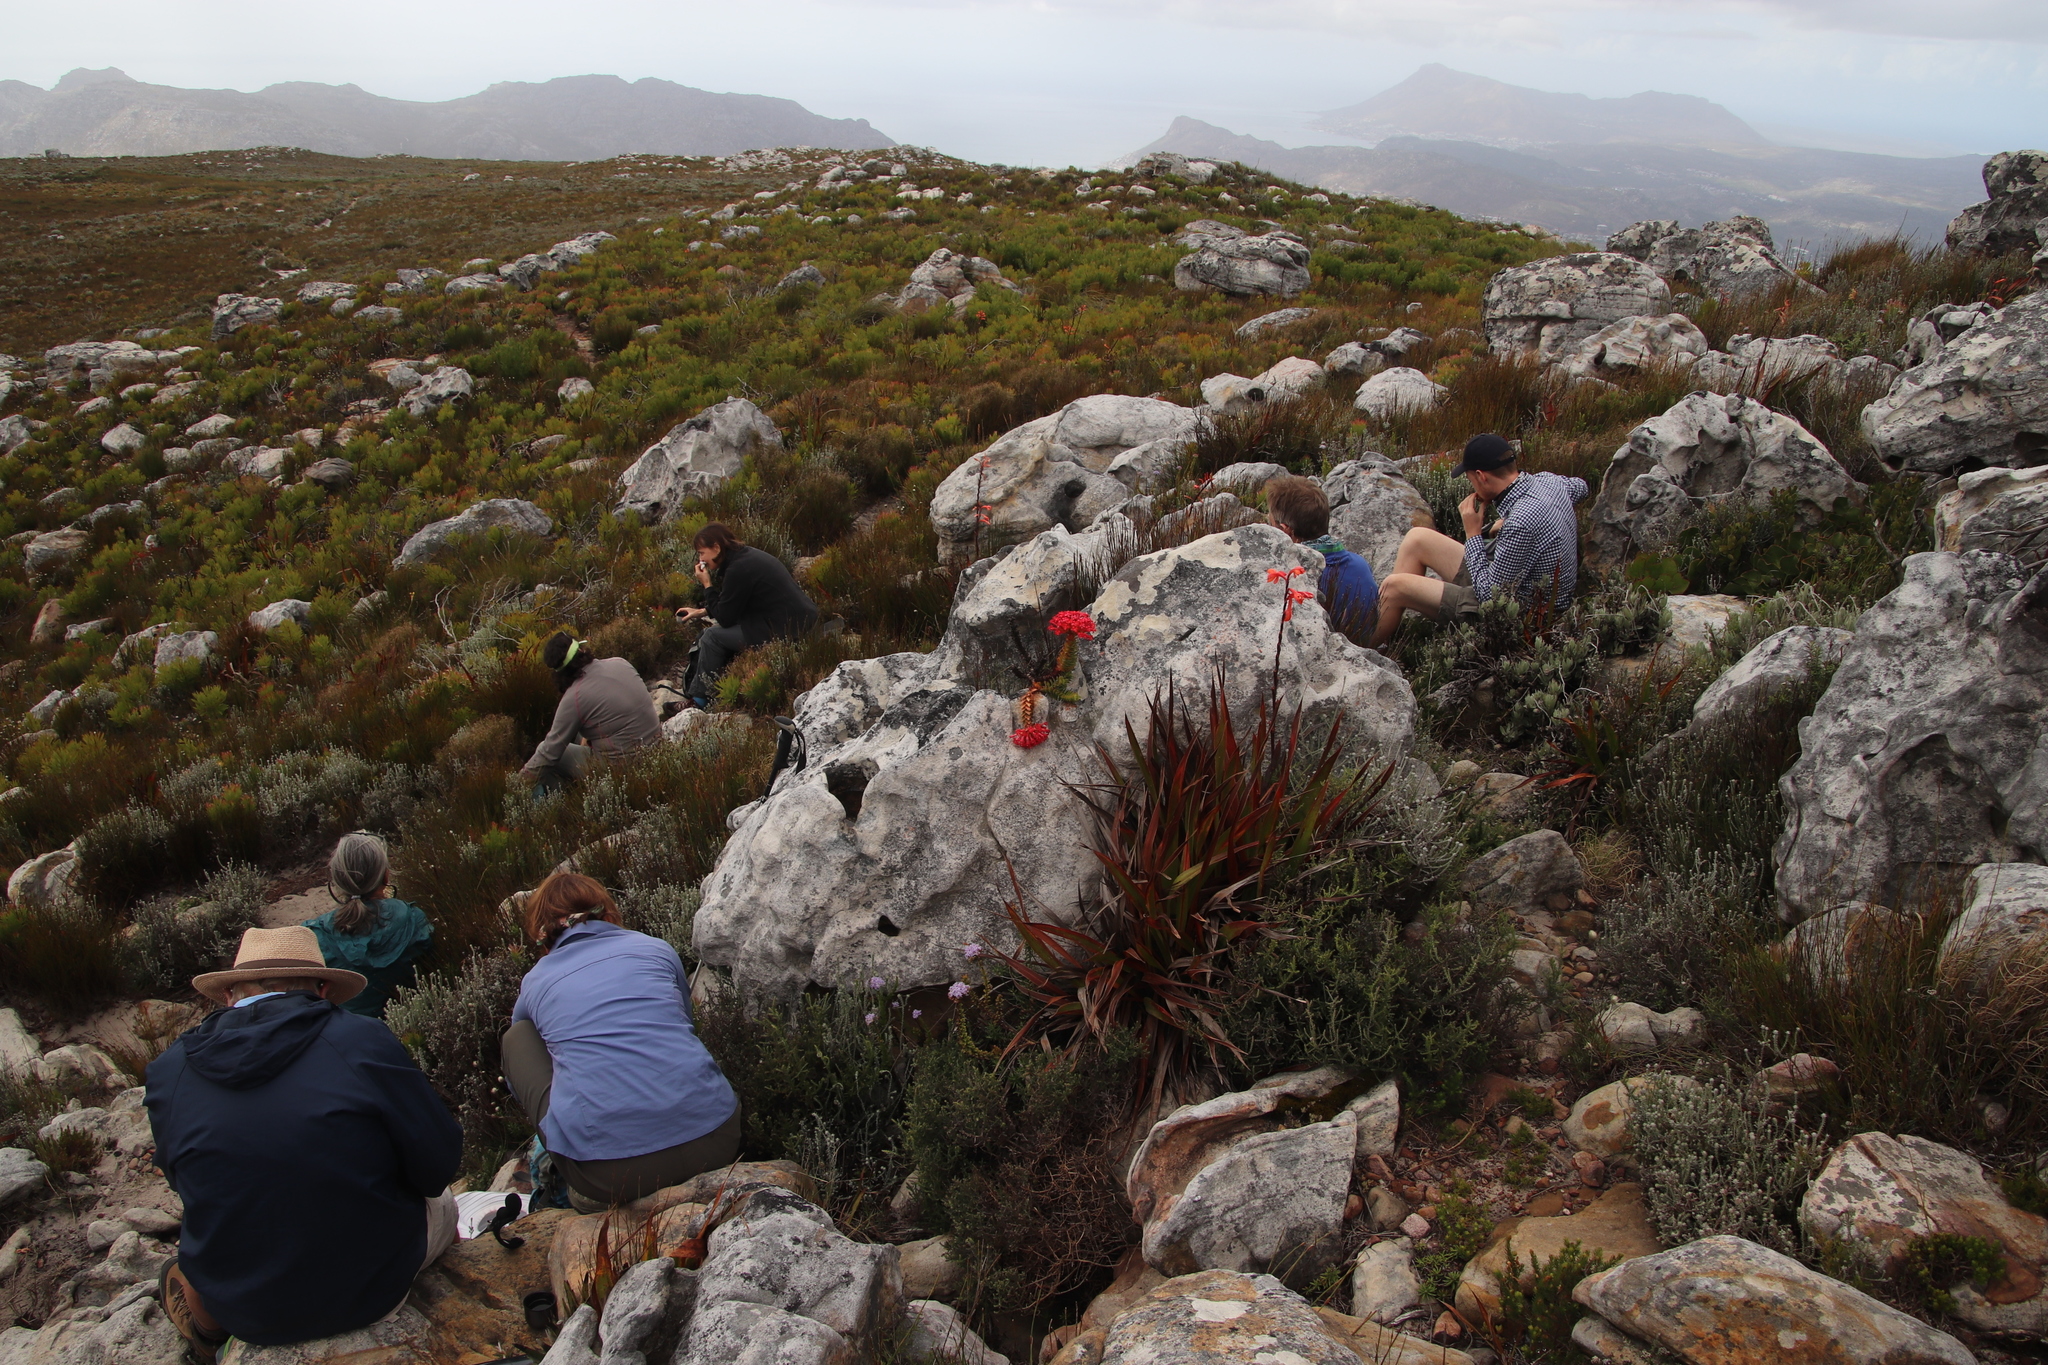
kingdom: Plantae
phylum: Tracheophyta
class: Magnoliopsida
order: Saxifragales
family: Crassulaceae
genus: Crassula
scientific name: Crassula coccinea
